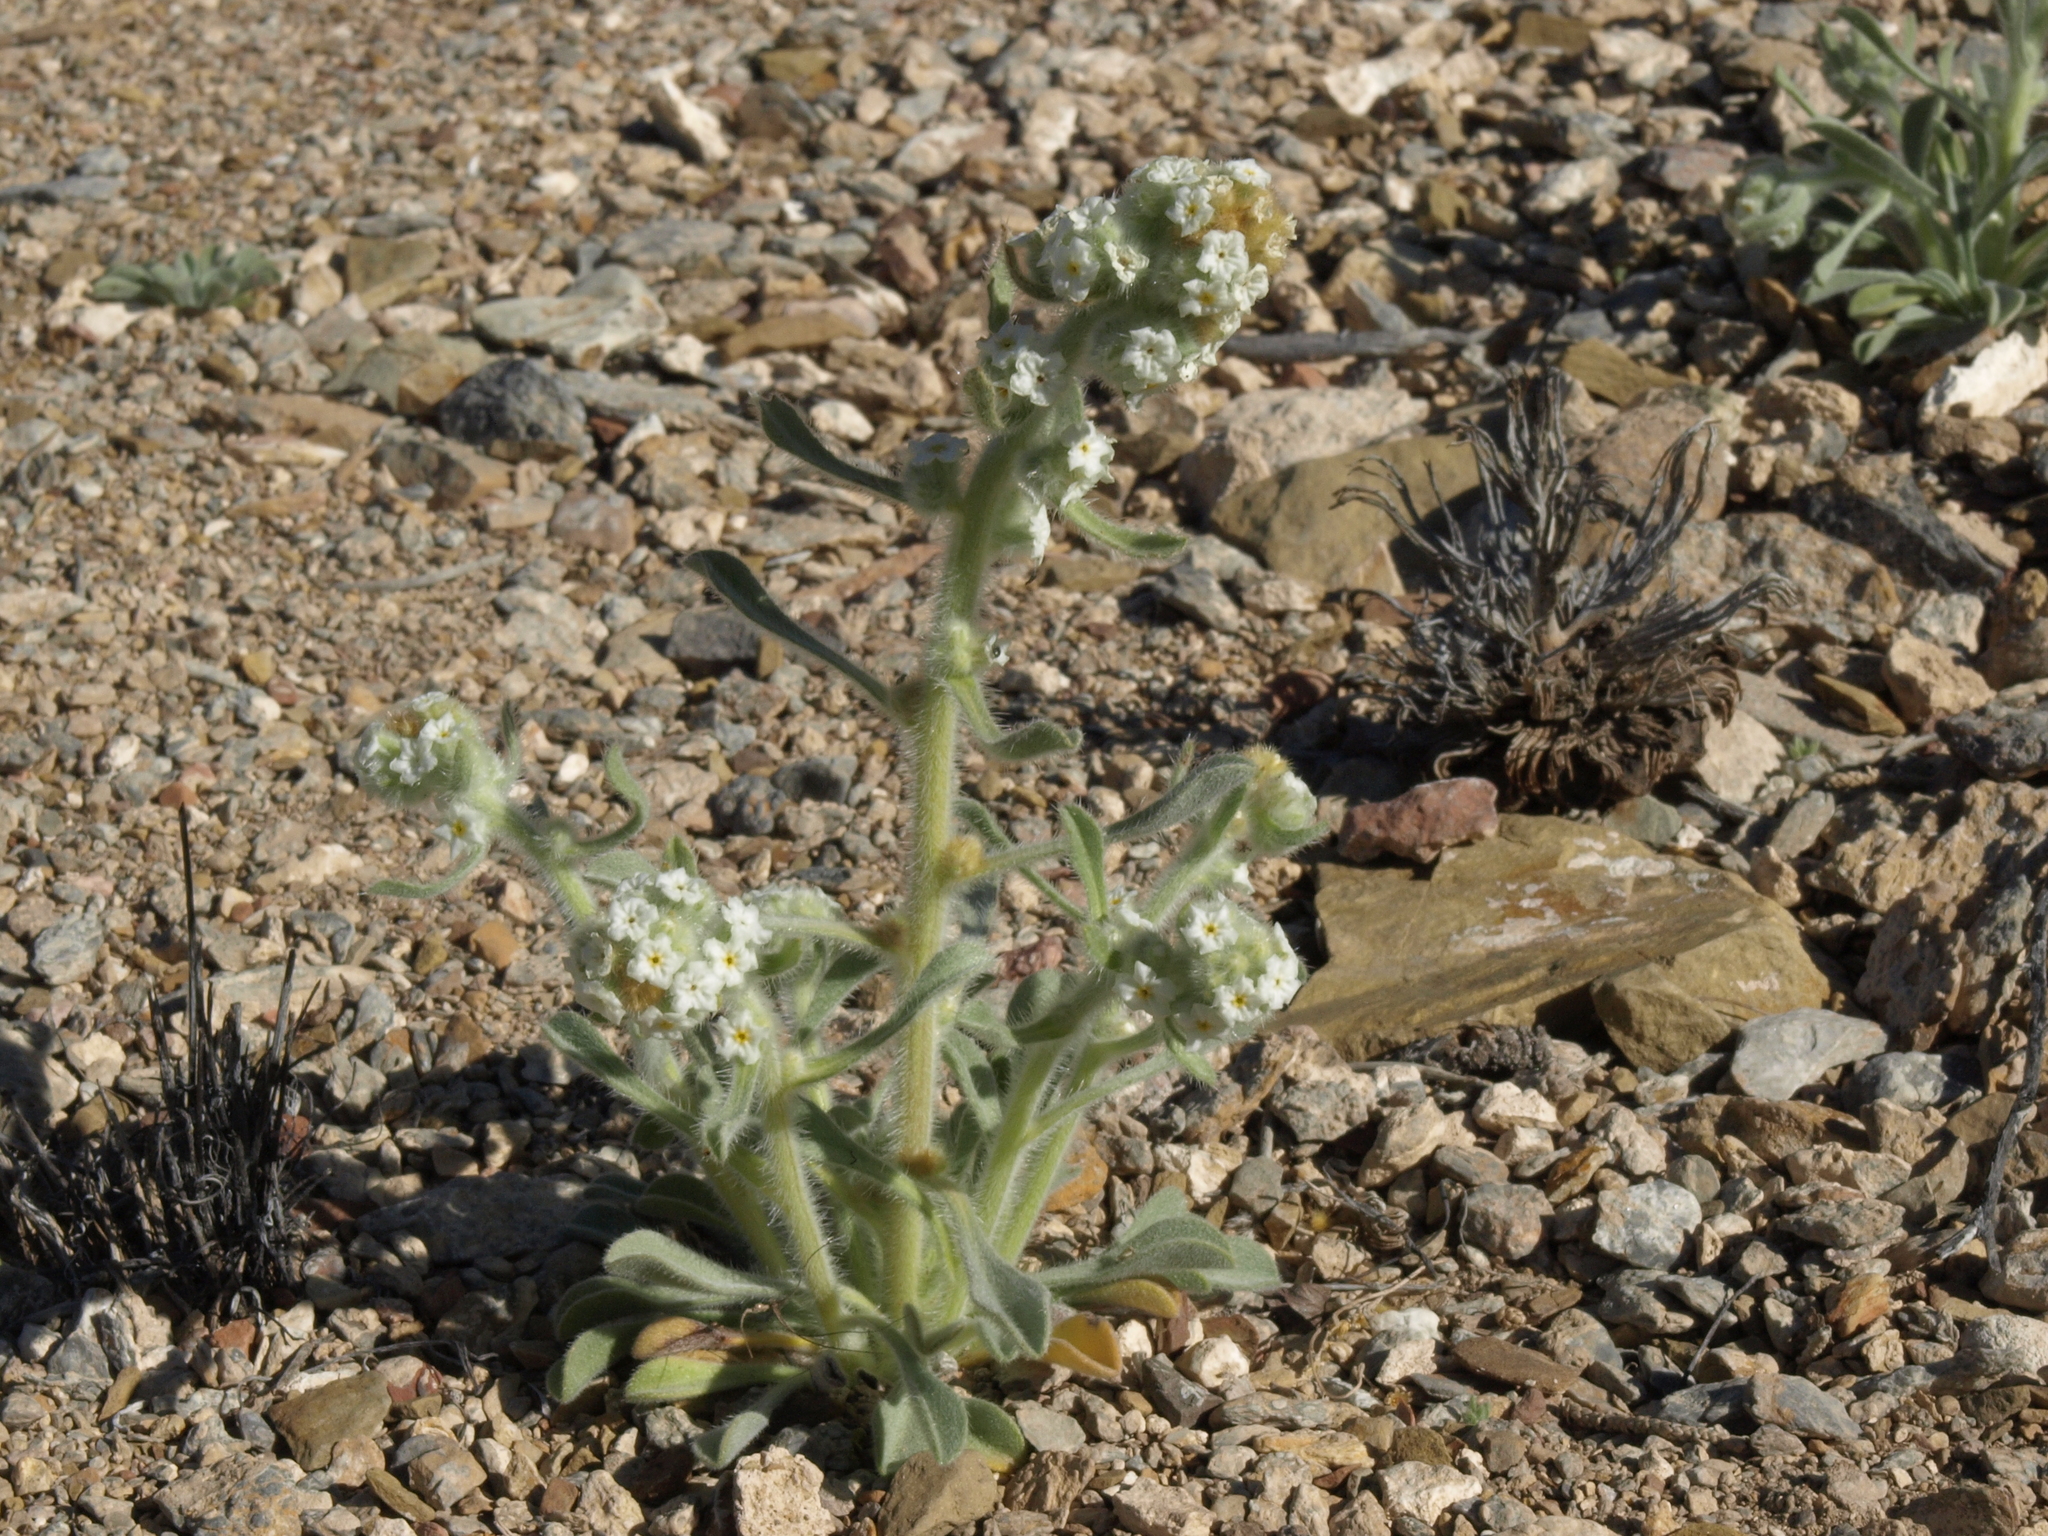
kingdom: Plantae
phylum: Tracheophyta
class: Magnoliopsida
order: Boraginales
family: Boraginaceae
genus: Oreocarya
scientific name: Oreocarya hoffmannii
